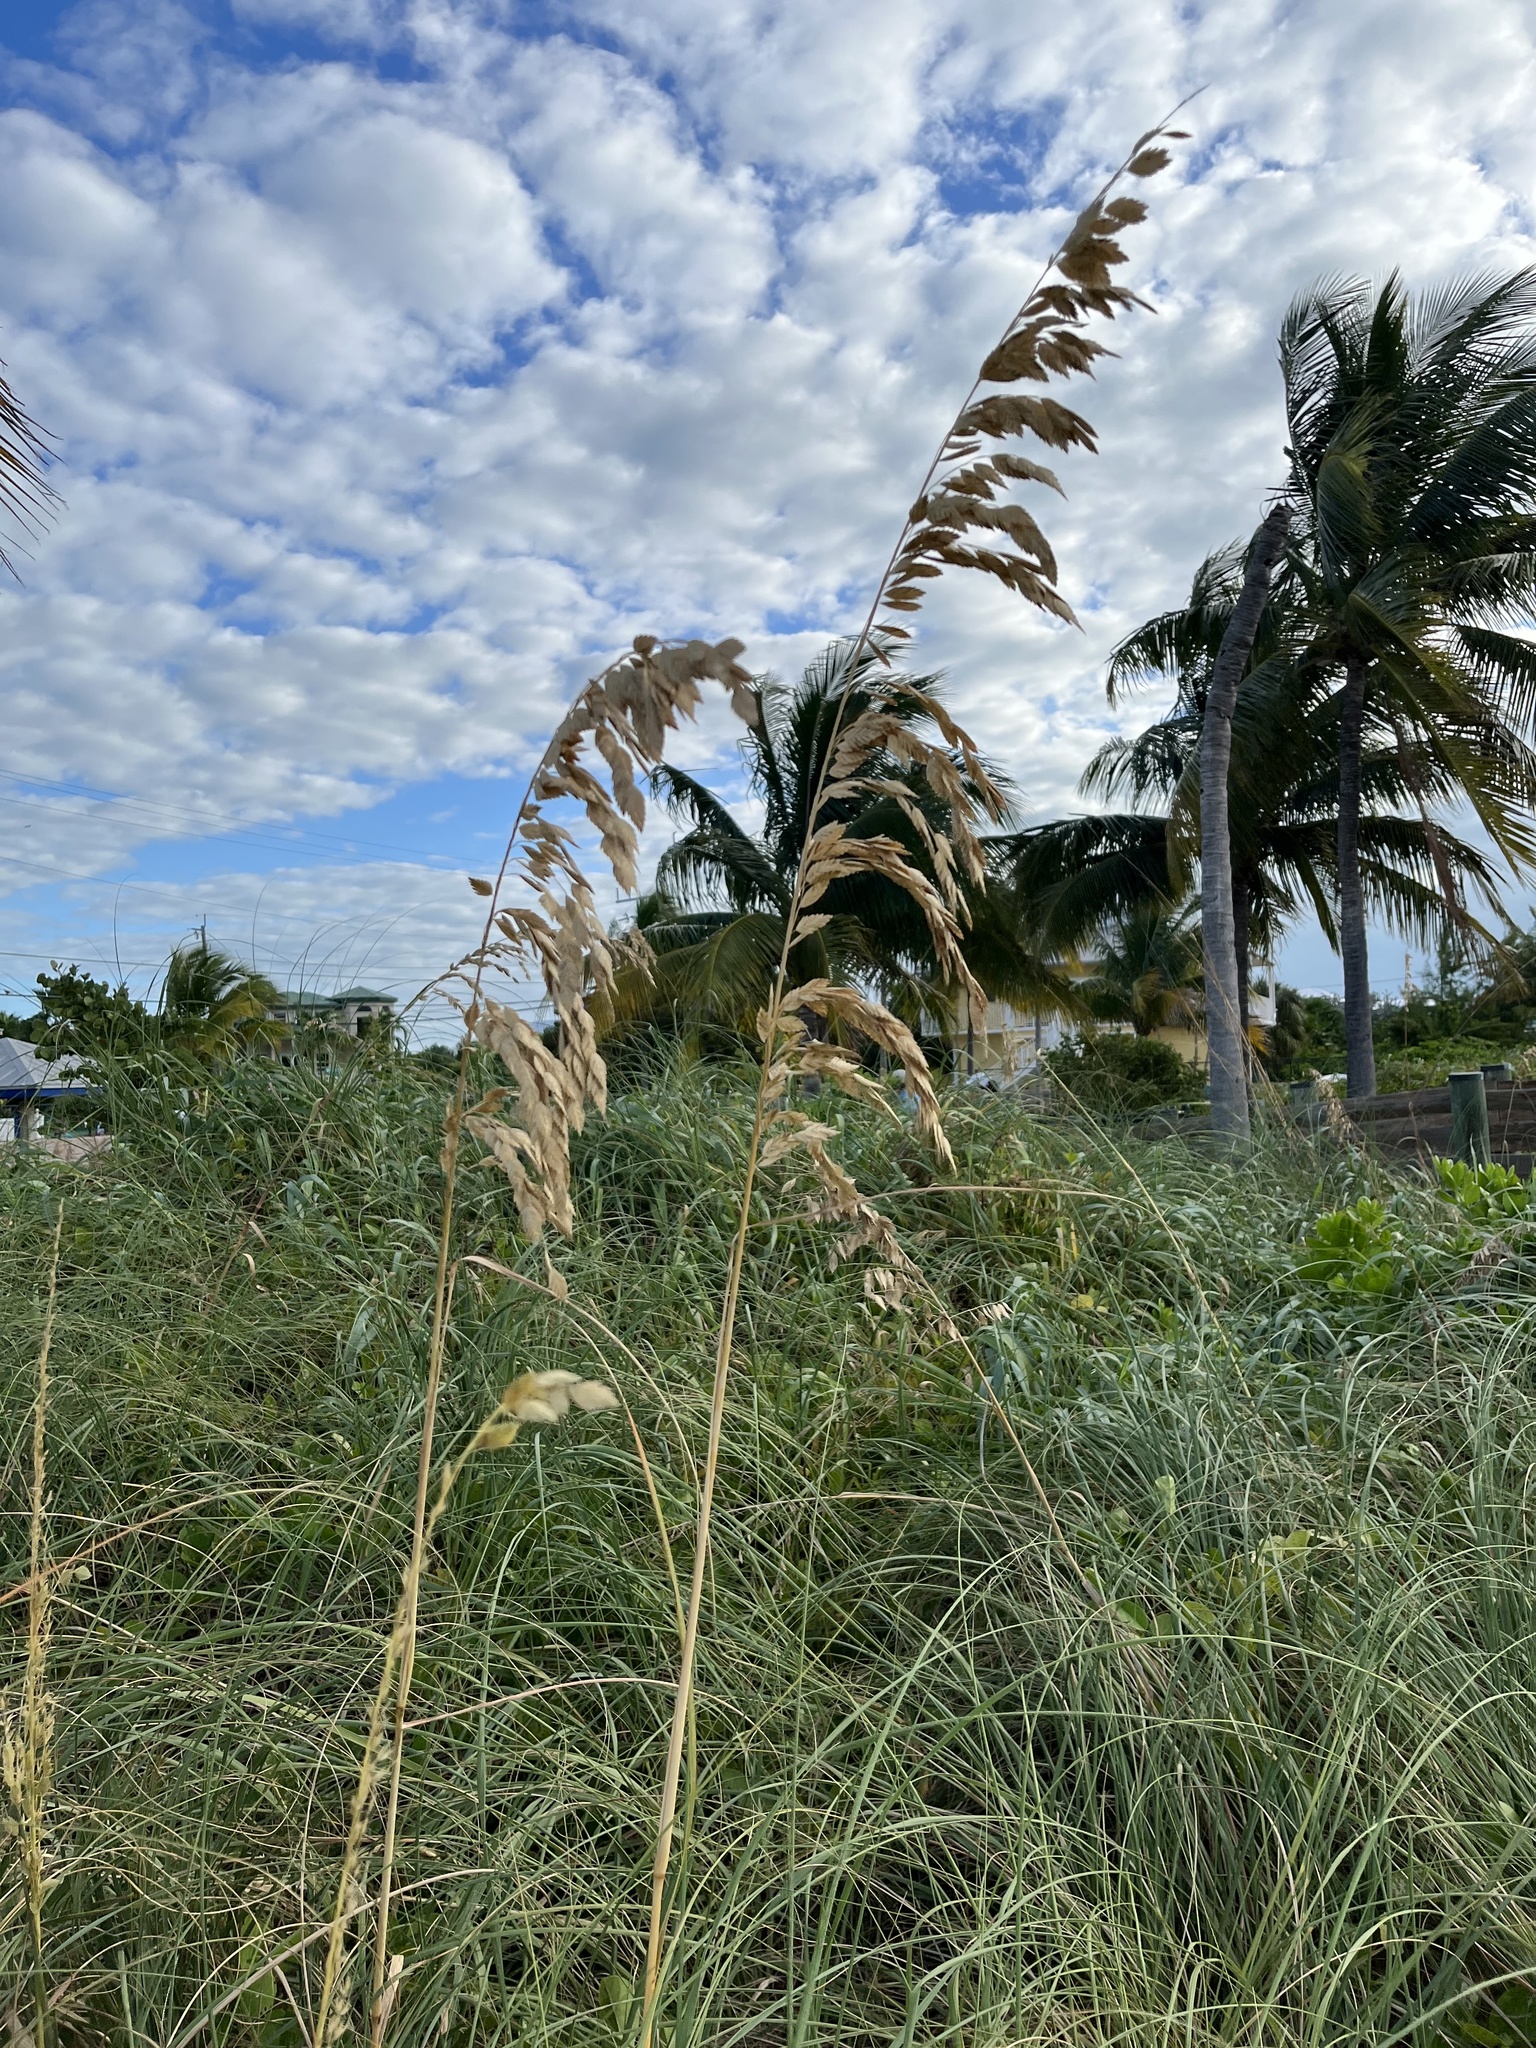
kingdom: Plantae
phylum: Tracheophyta
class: Liliopsida
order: Poales
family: Poaceae
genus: Uniola
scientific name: Uniola paniculata
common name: Seaside-oats
